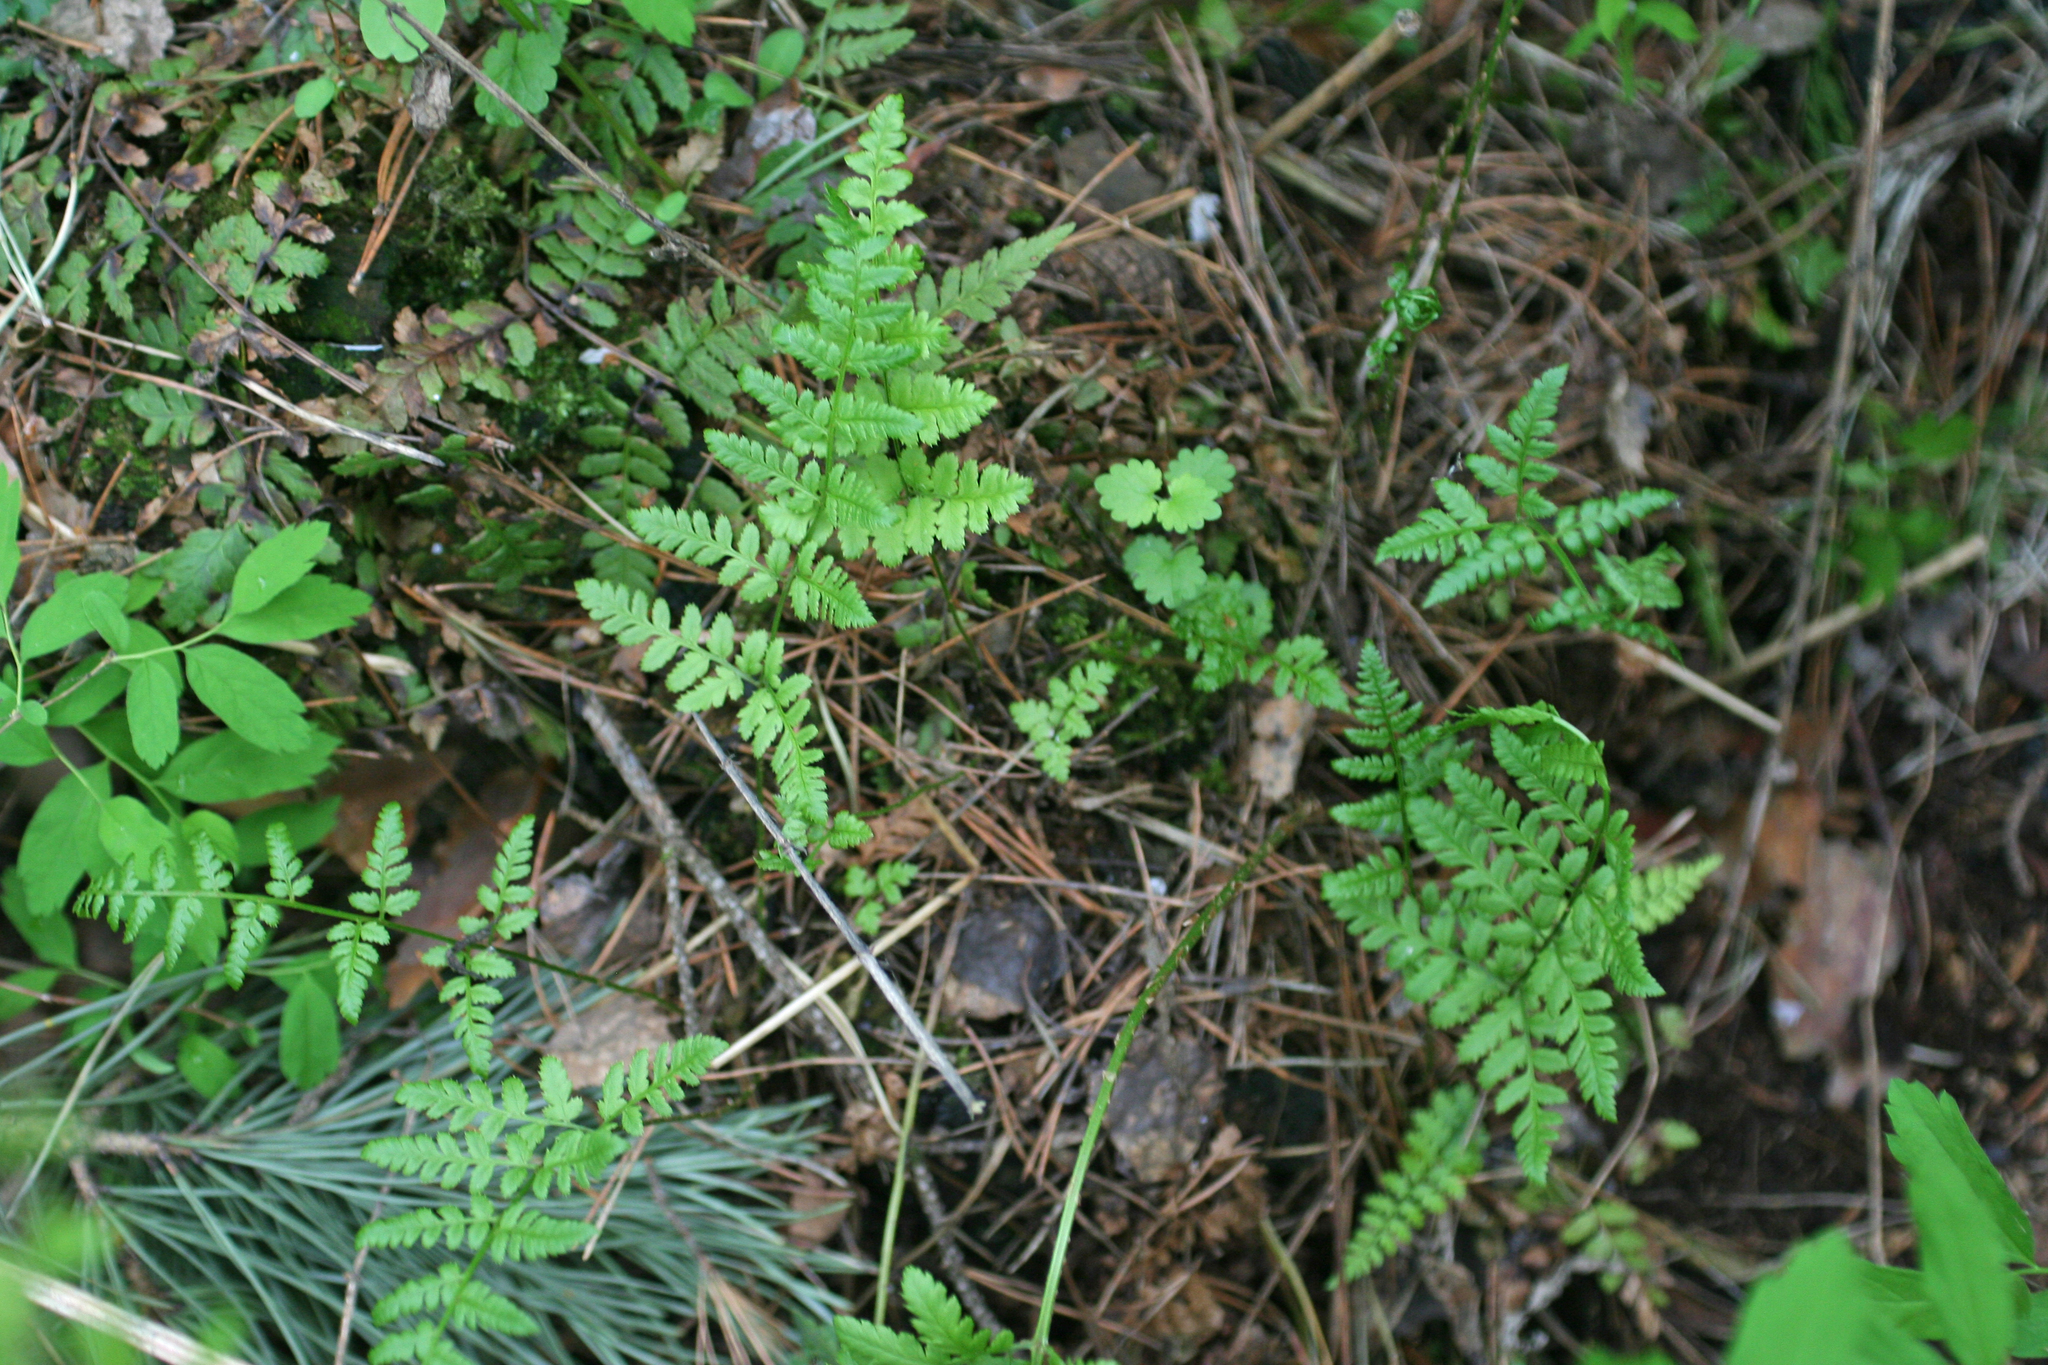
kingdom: Plantae
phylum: Tracheophyta
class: Polypodiopsida
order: Polypodiales
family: Dryopteridaceae
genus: Dryopteris
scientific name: Dryopteris carthusiana
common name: Narrow buckler-fern
